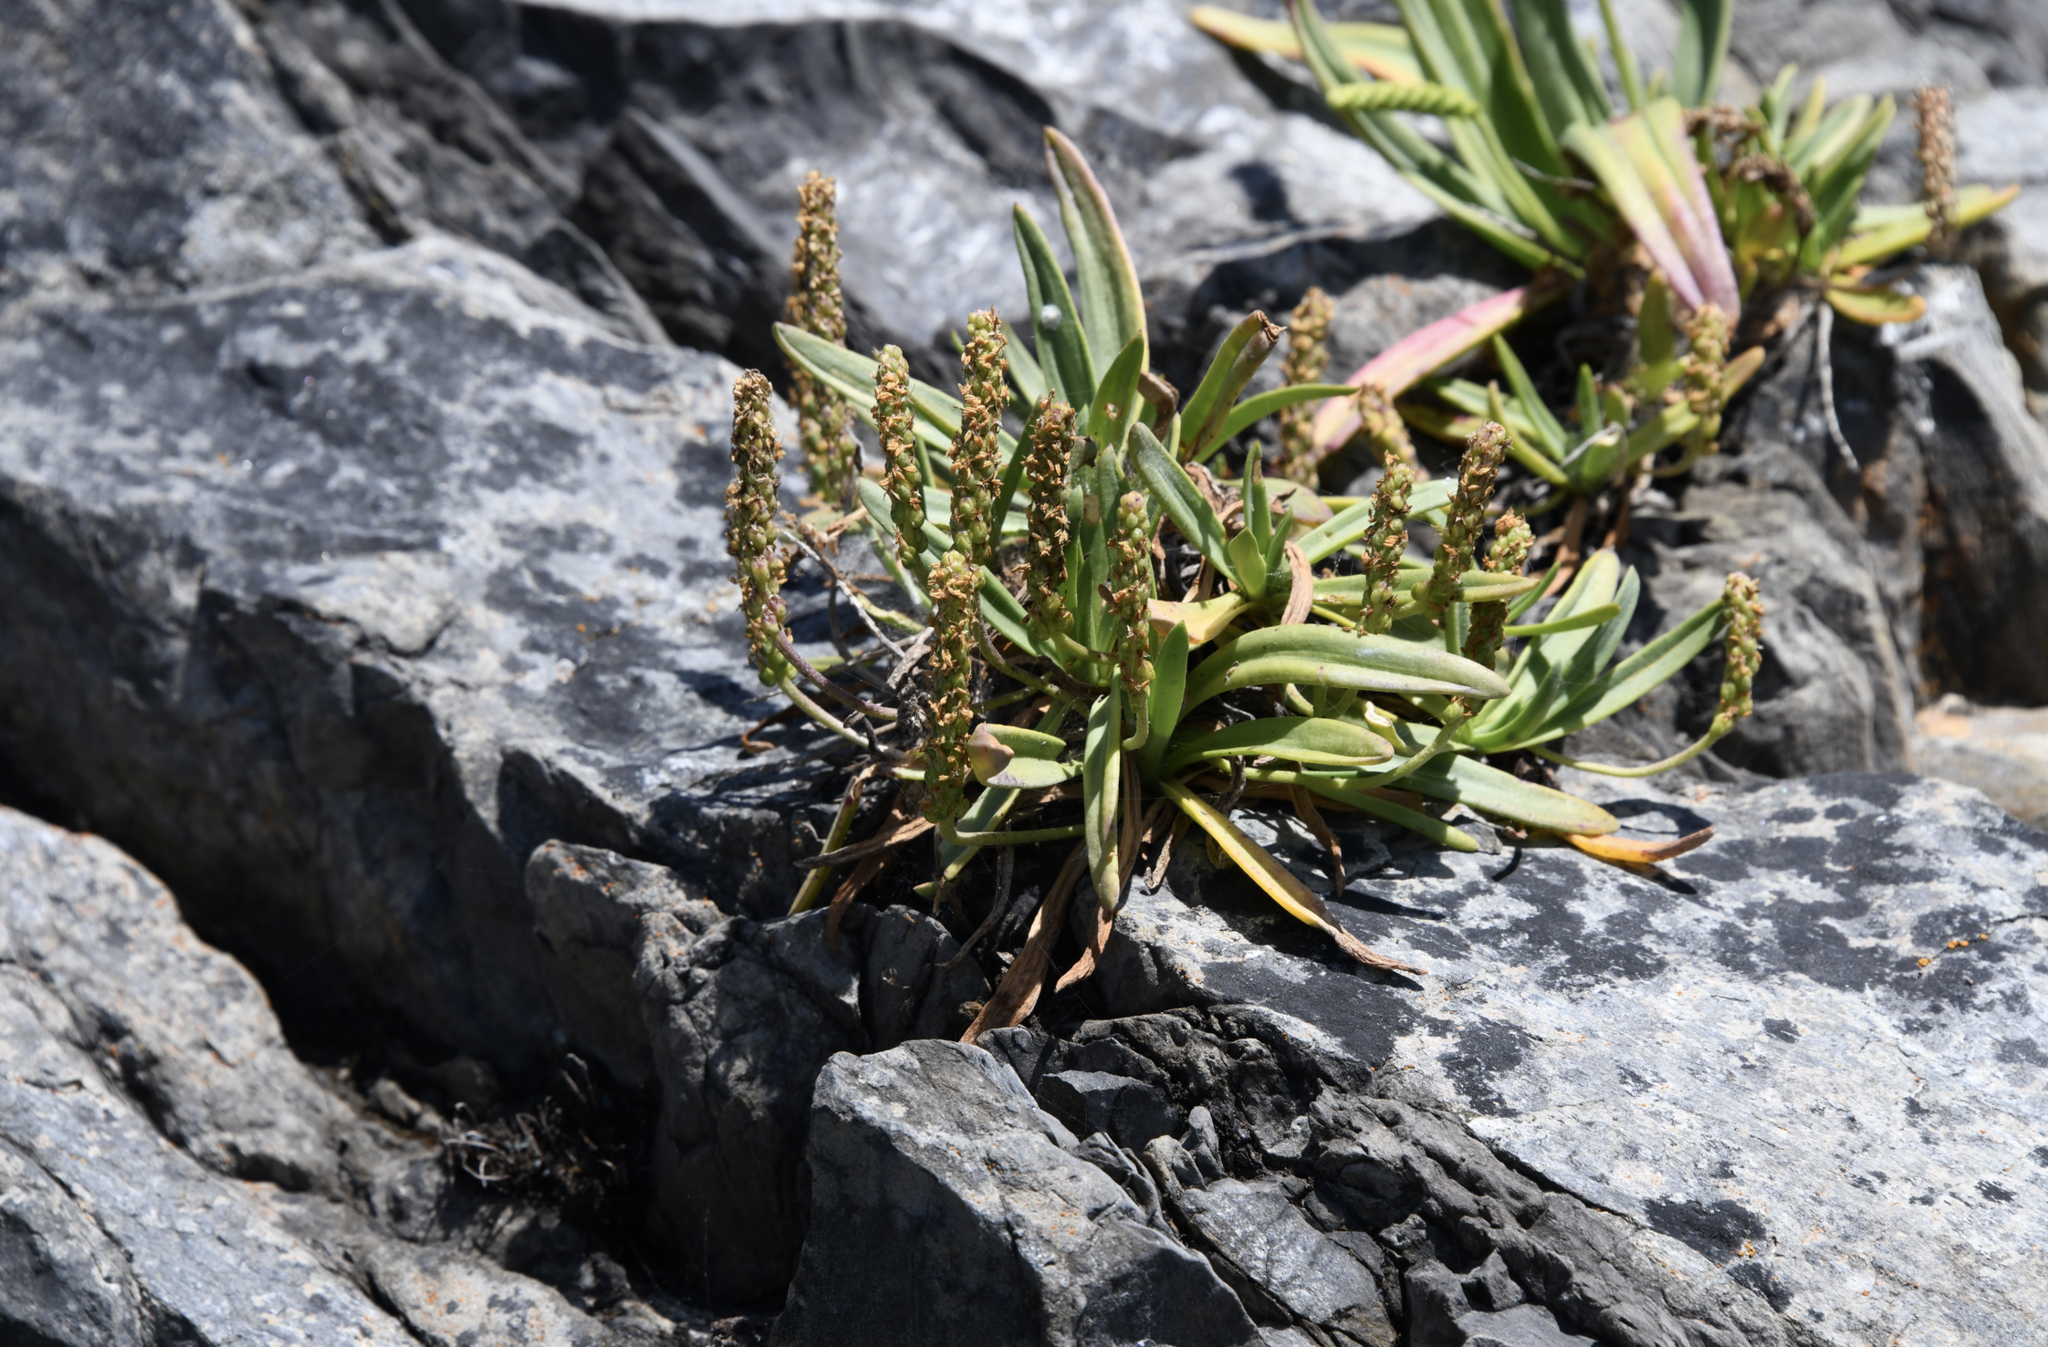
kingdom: Plantae
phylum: Tracheophyta
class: Magnoliopsida
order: Lamiales
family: Plantaginaceae
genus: Plantago
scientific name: Plantago maritima
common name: Sea plantain
